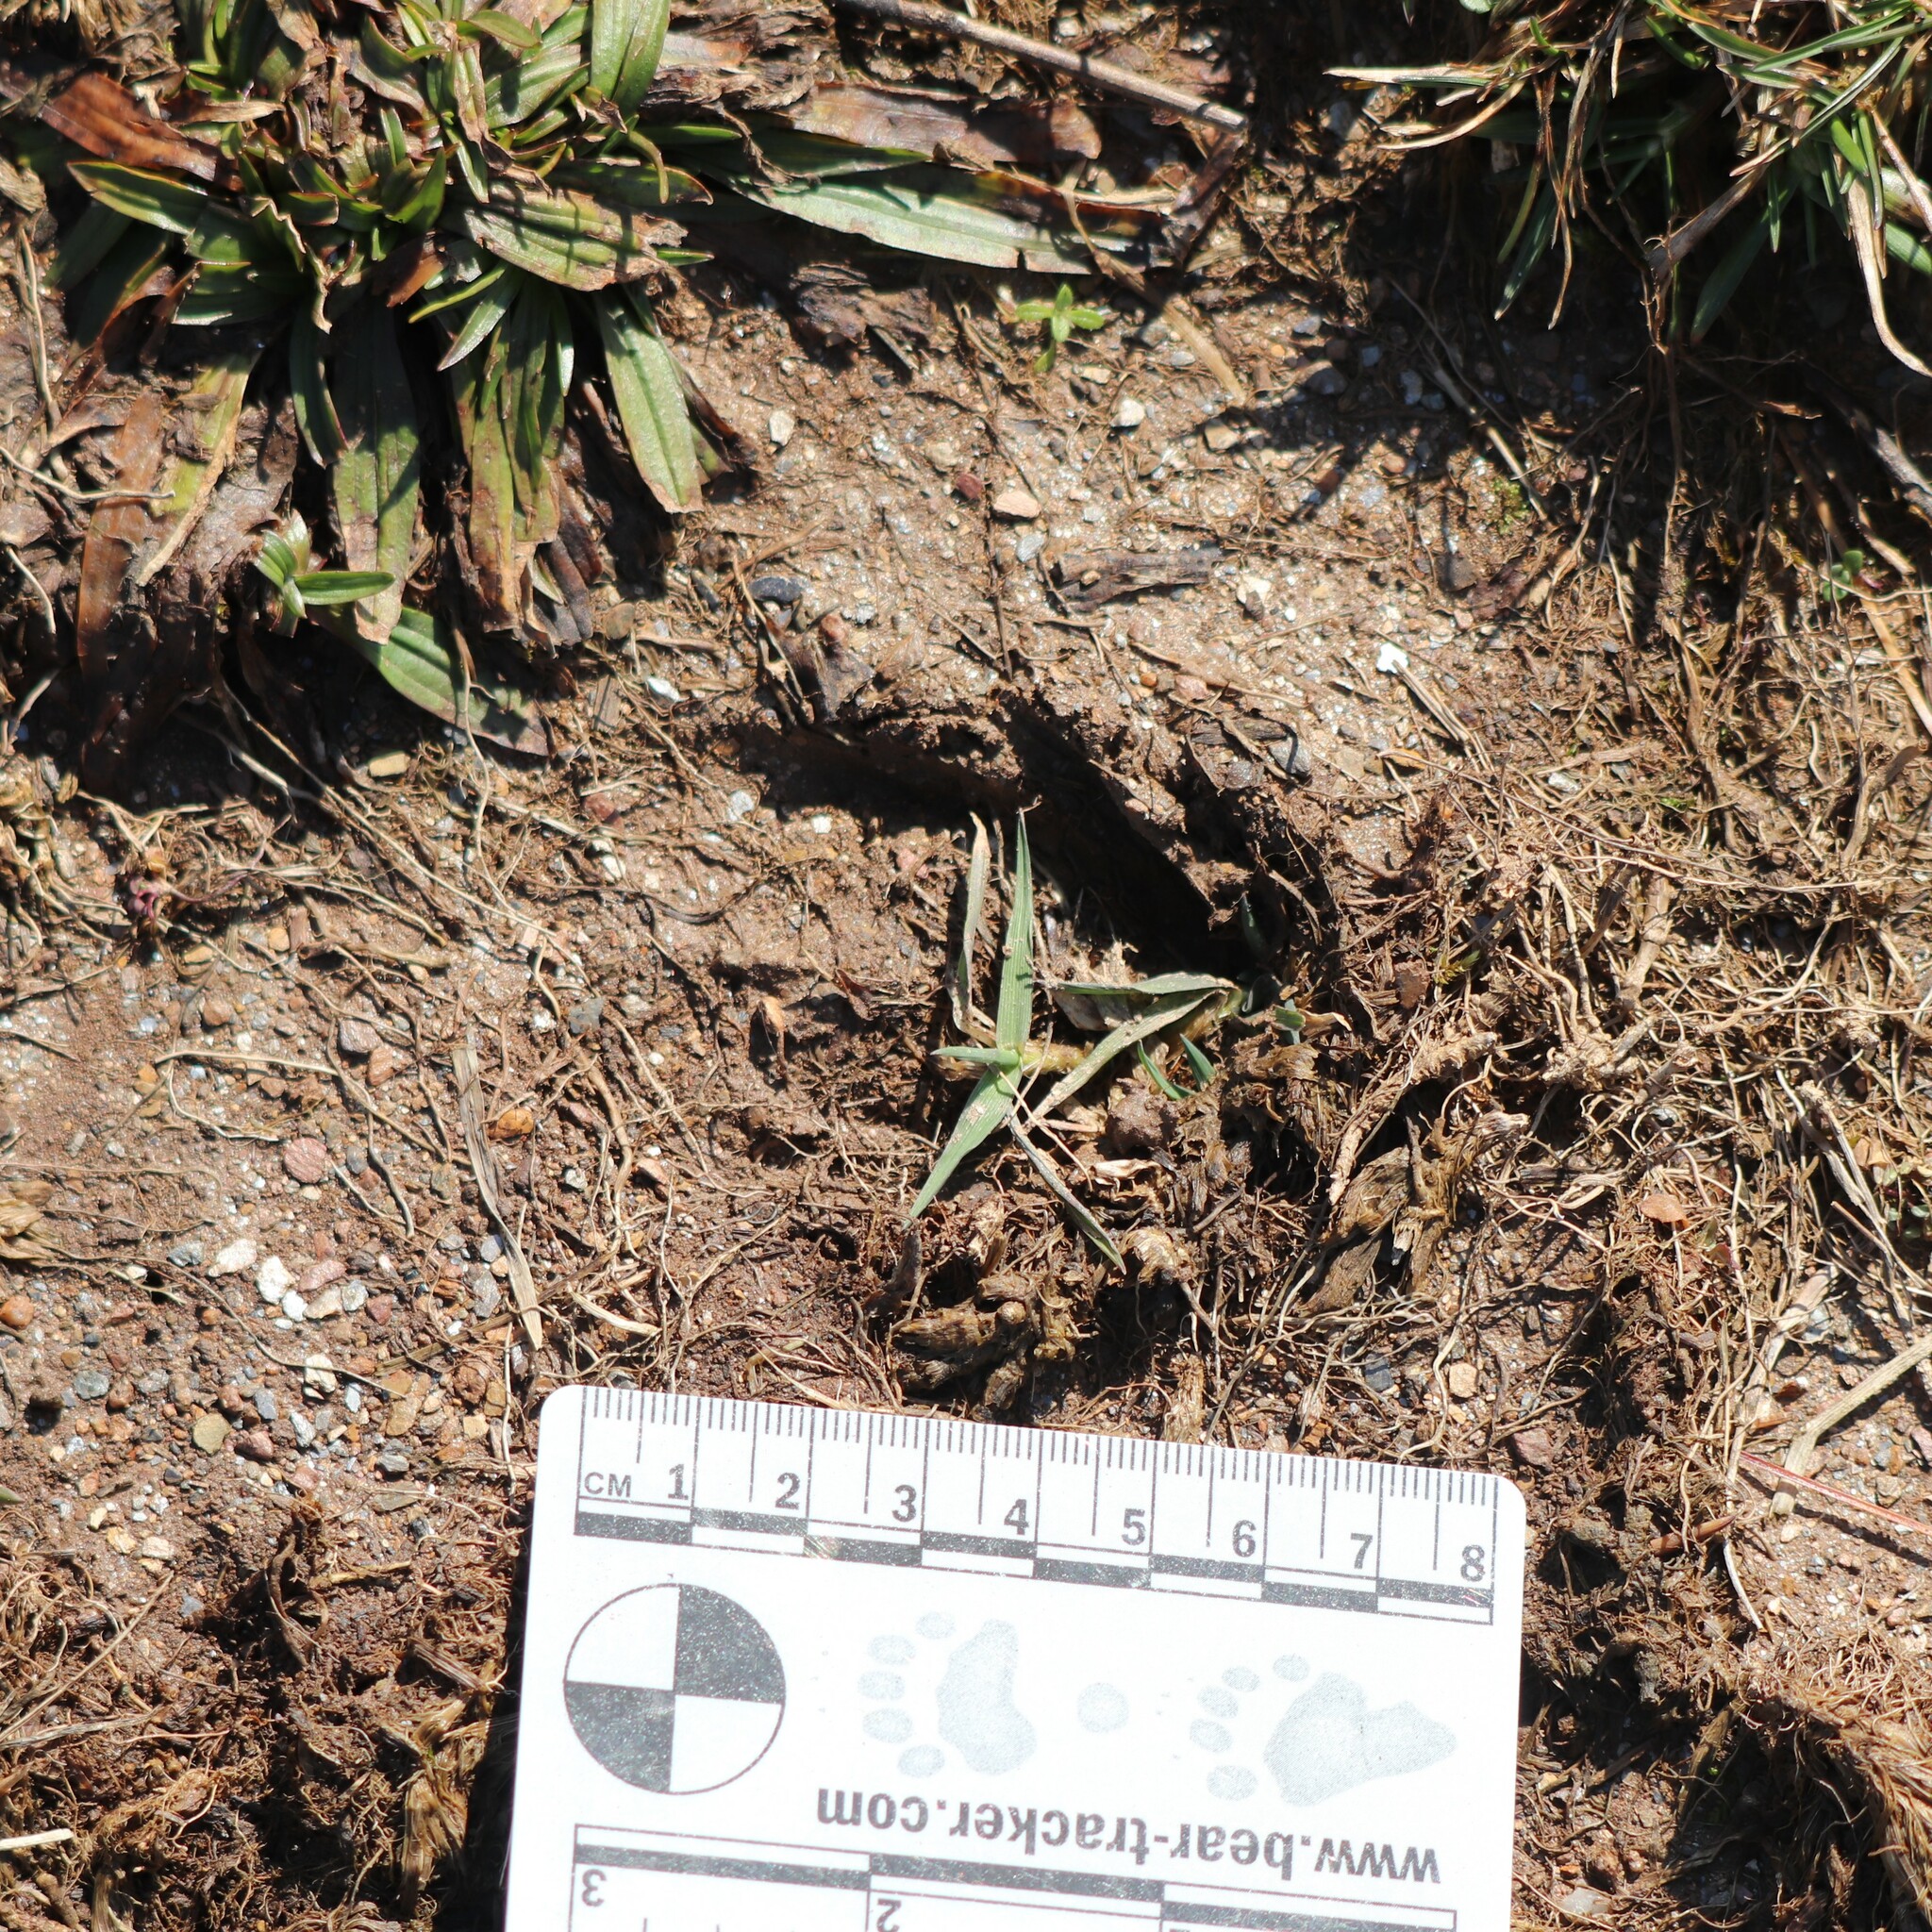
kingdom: Animalia
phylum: Chordata
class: Mammalia
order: Artiodactyla
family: Cervidae
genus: Odocoileus
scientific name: Odocoileus virginianus
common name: White-tailed deer
